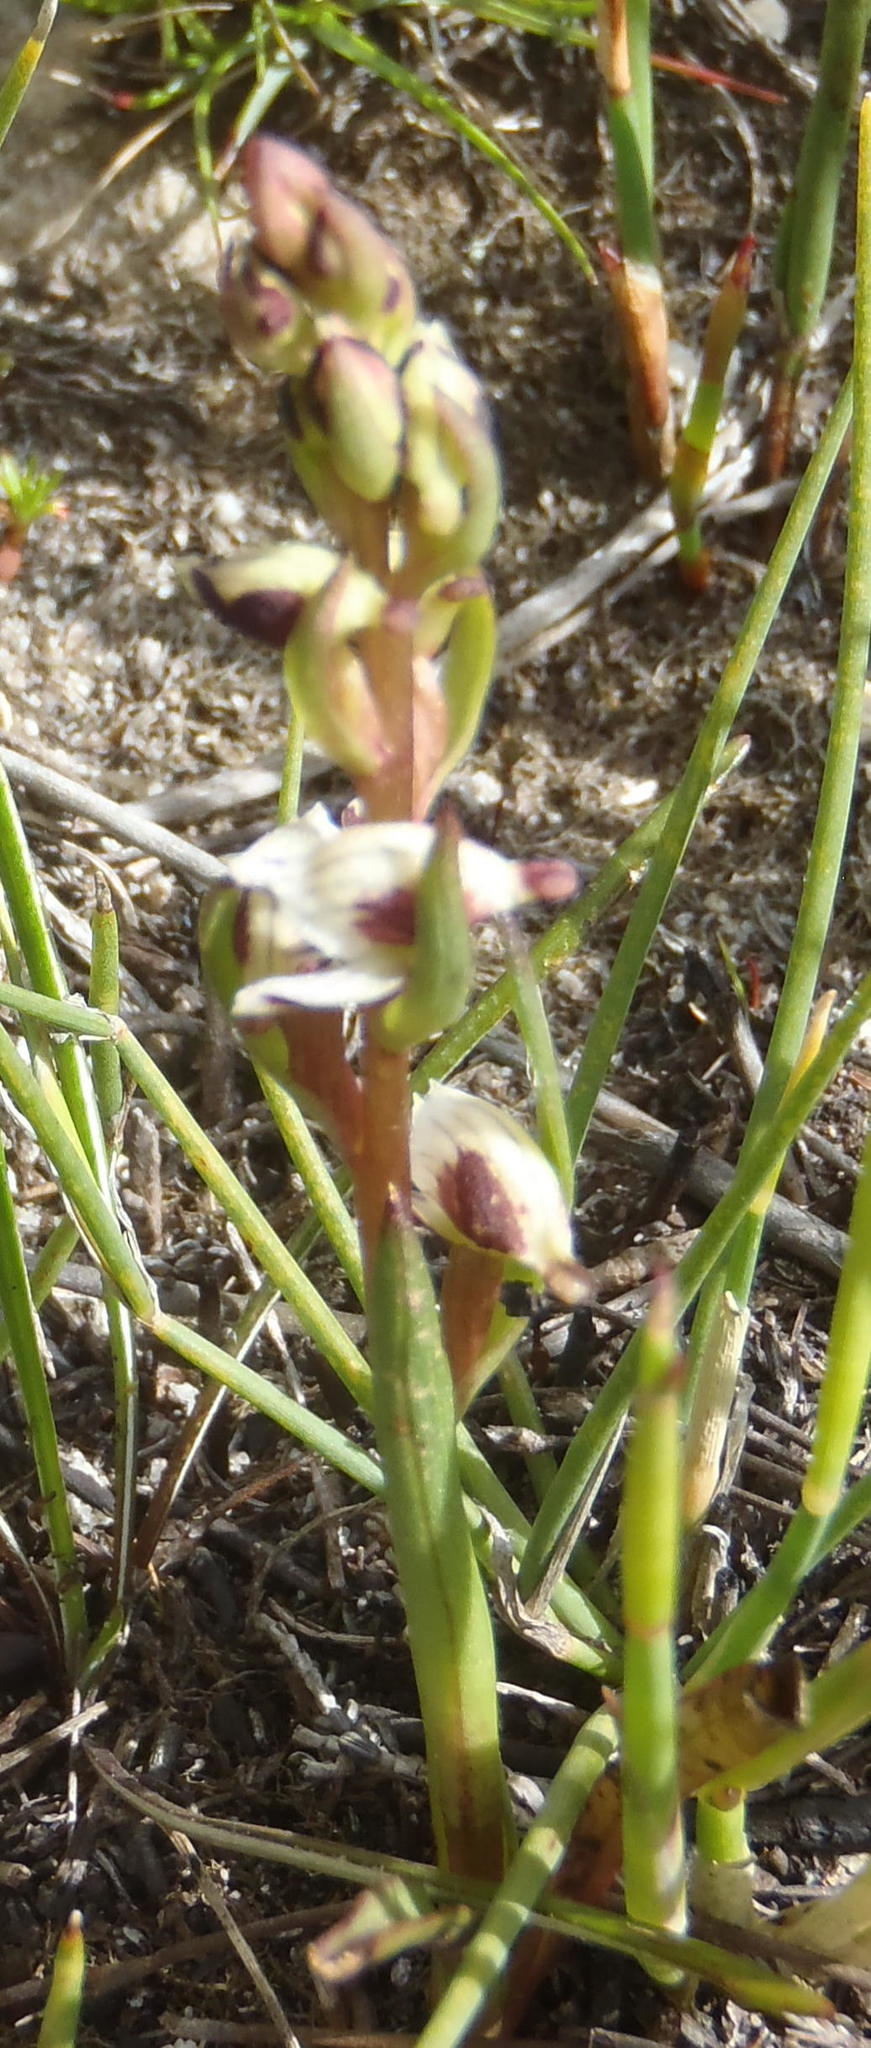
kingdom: Plantae
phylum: Tracheophyta
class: Liliopsida
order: Asparagales
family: Orchidaceae
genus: Disa
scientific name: Disa ocellata
